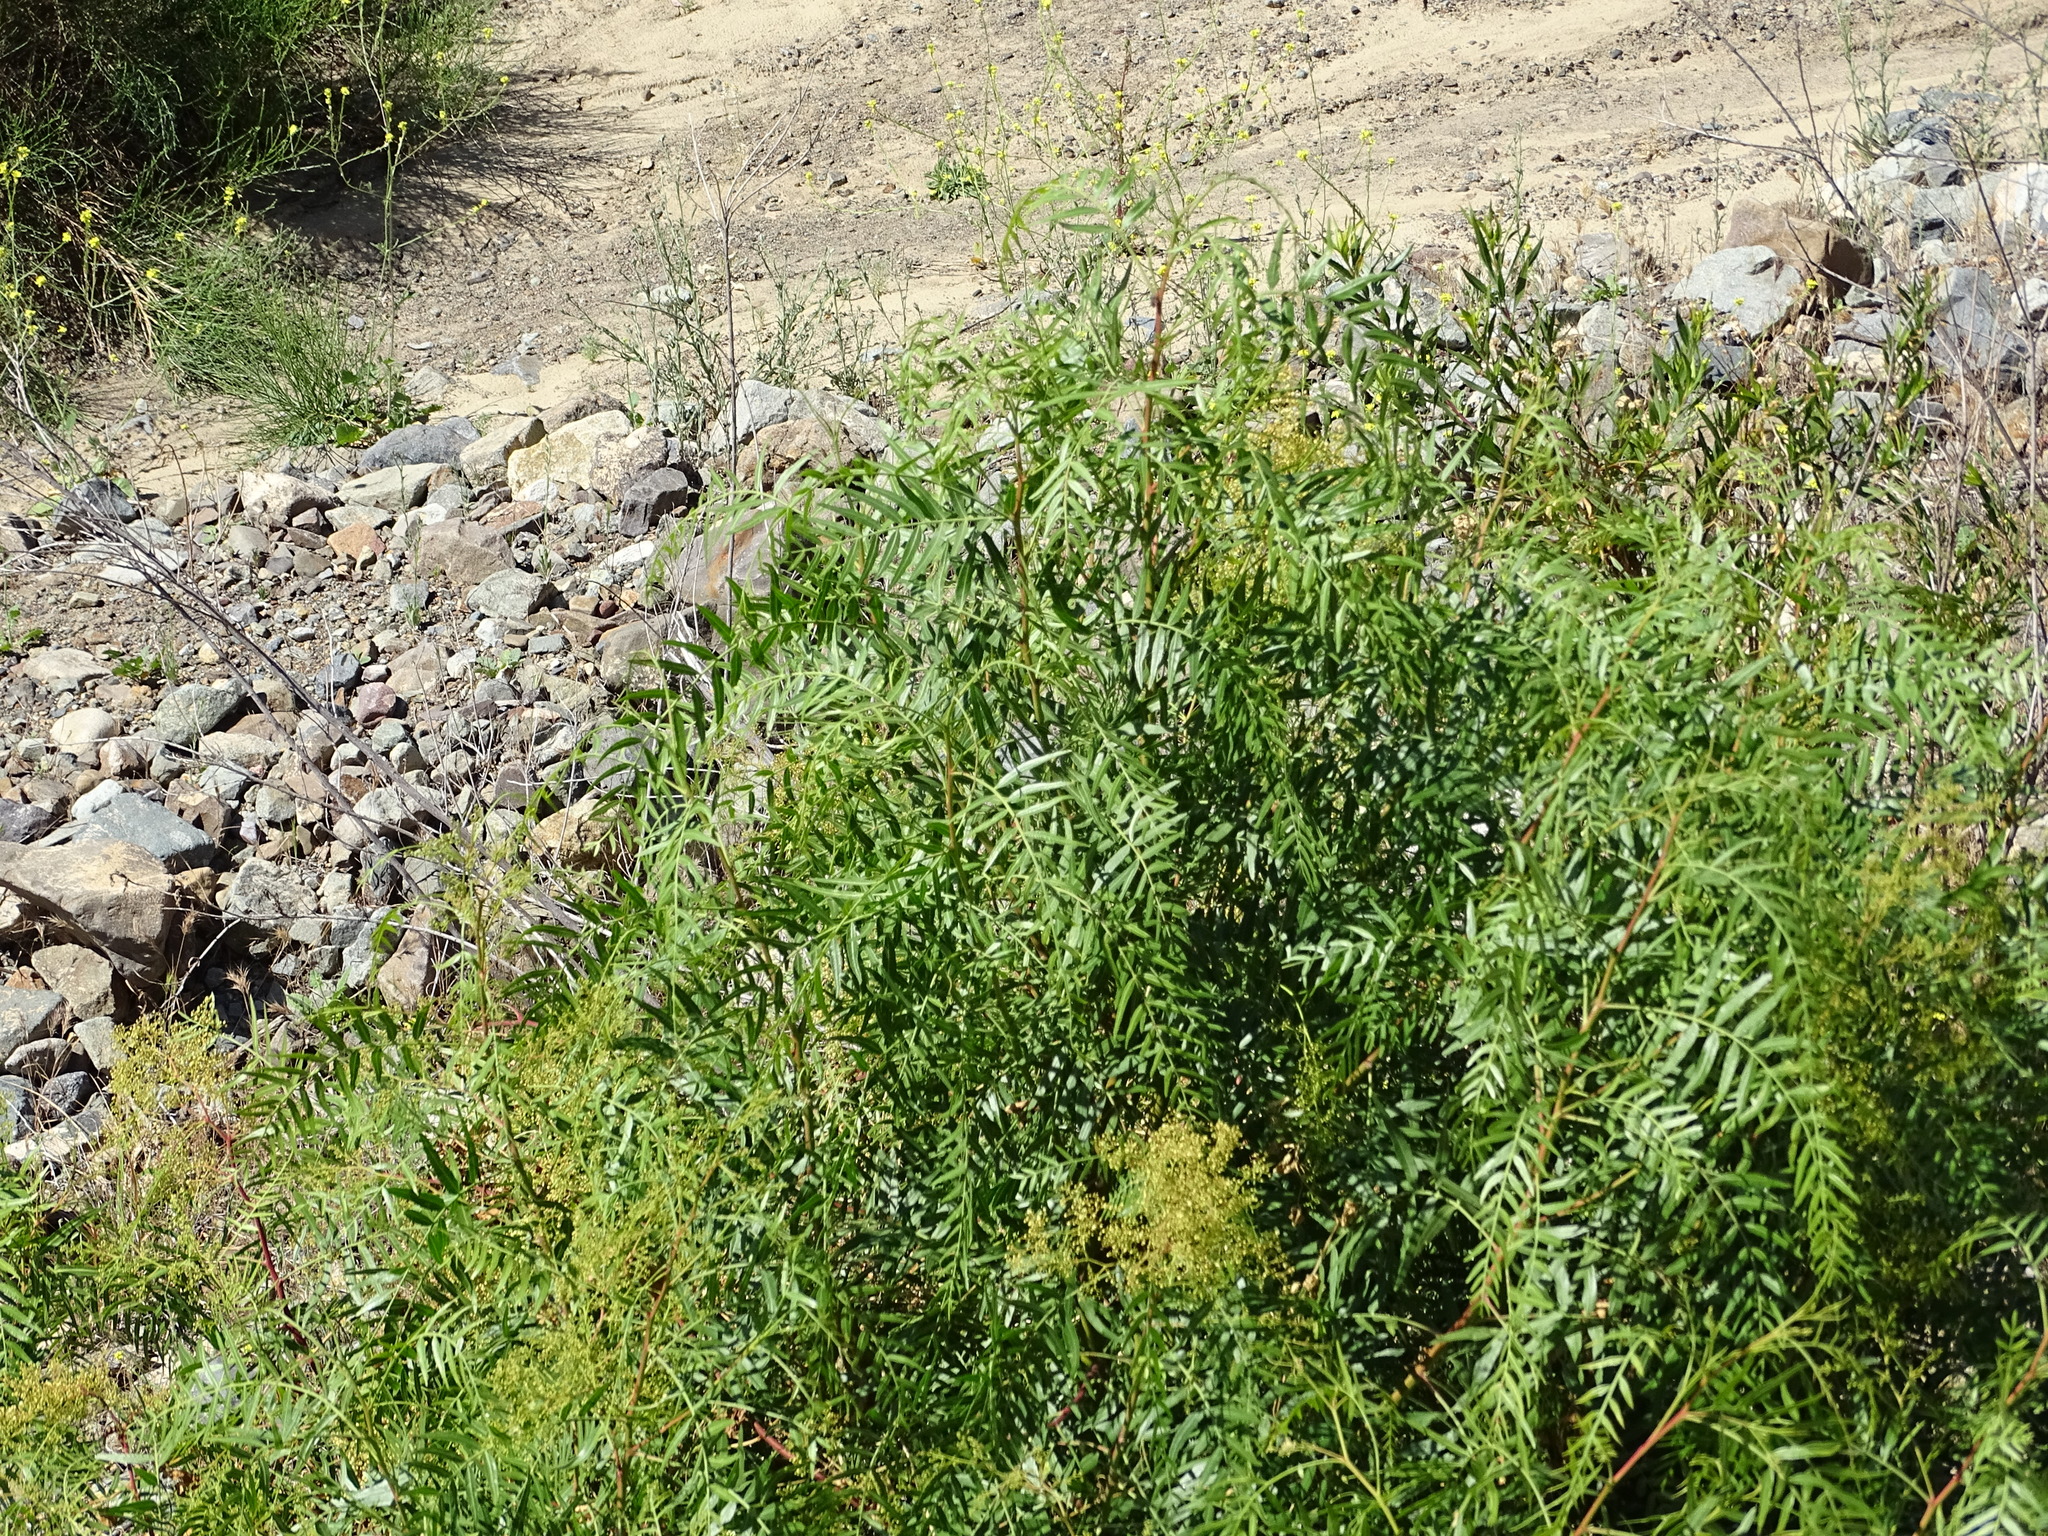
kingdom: Plantae
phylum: Tracheophyta
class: Magnoliopsida
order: Sapindales
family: Anacardiaceae
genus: Schinus
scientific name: Schinus molle
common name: Peruvian peppertree
